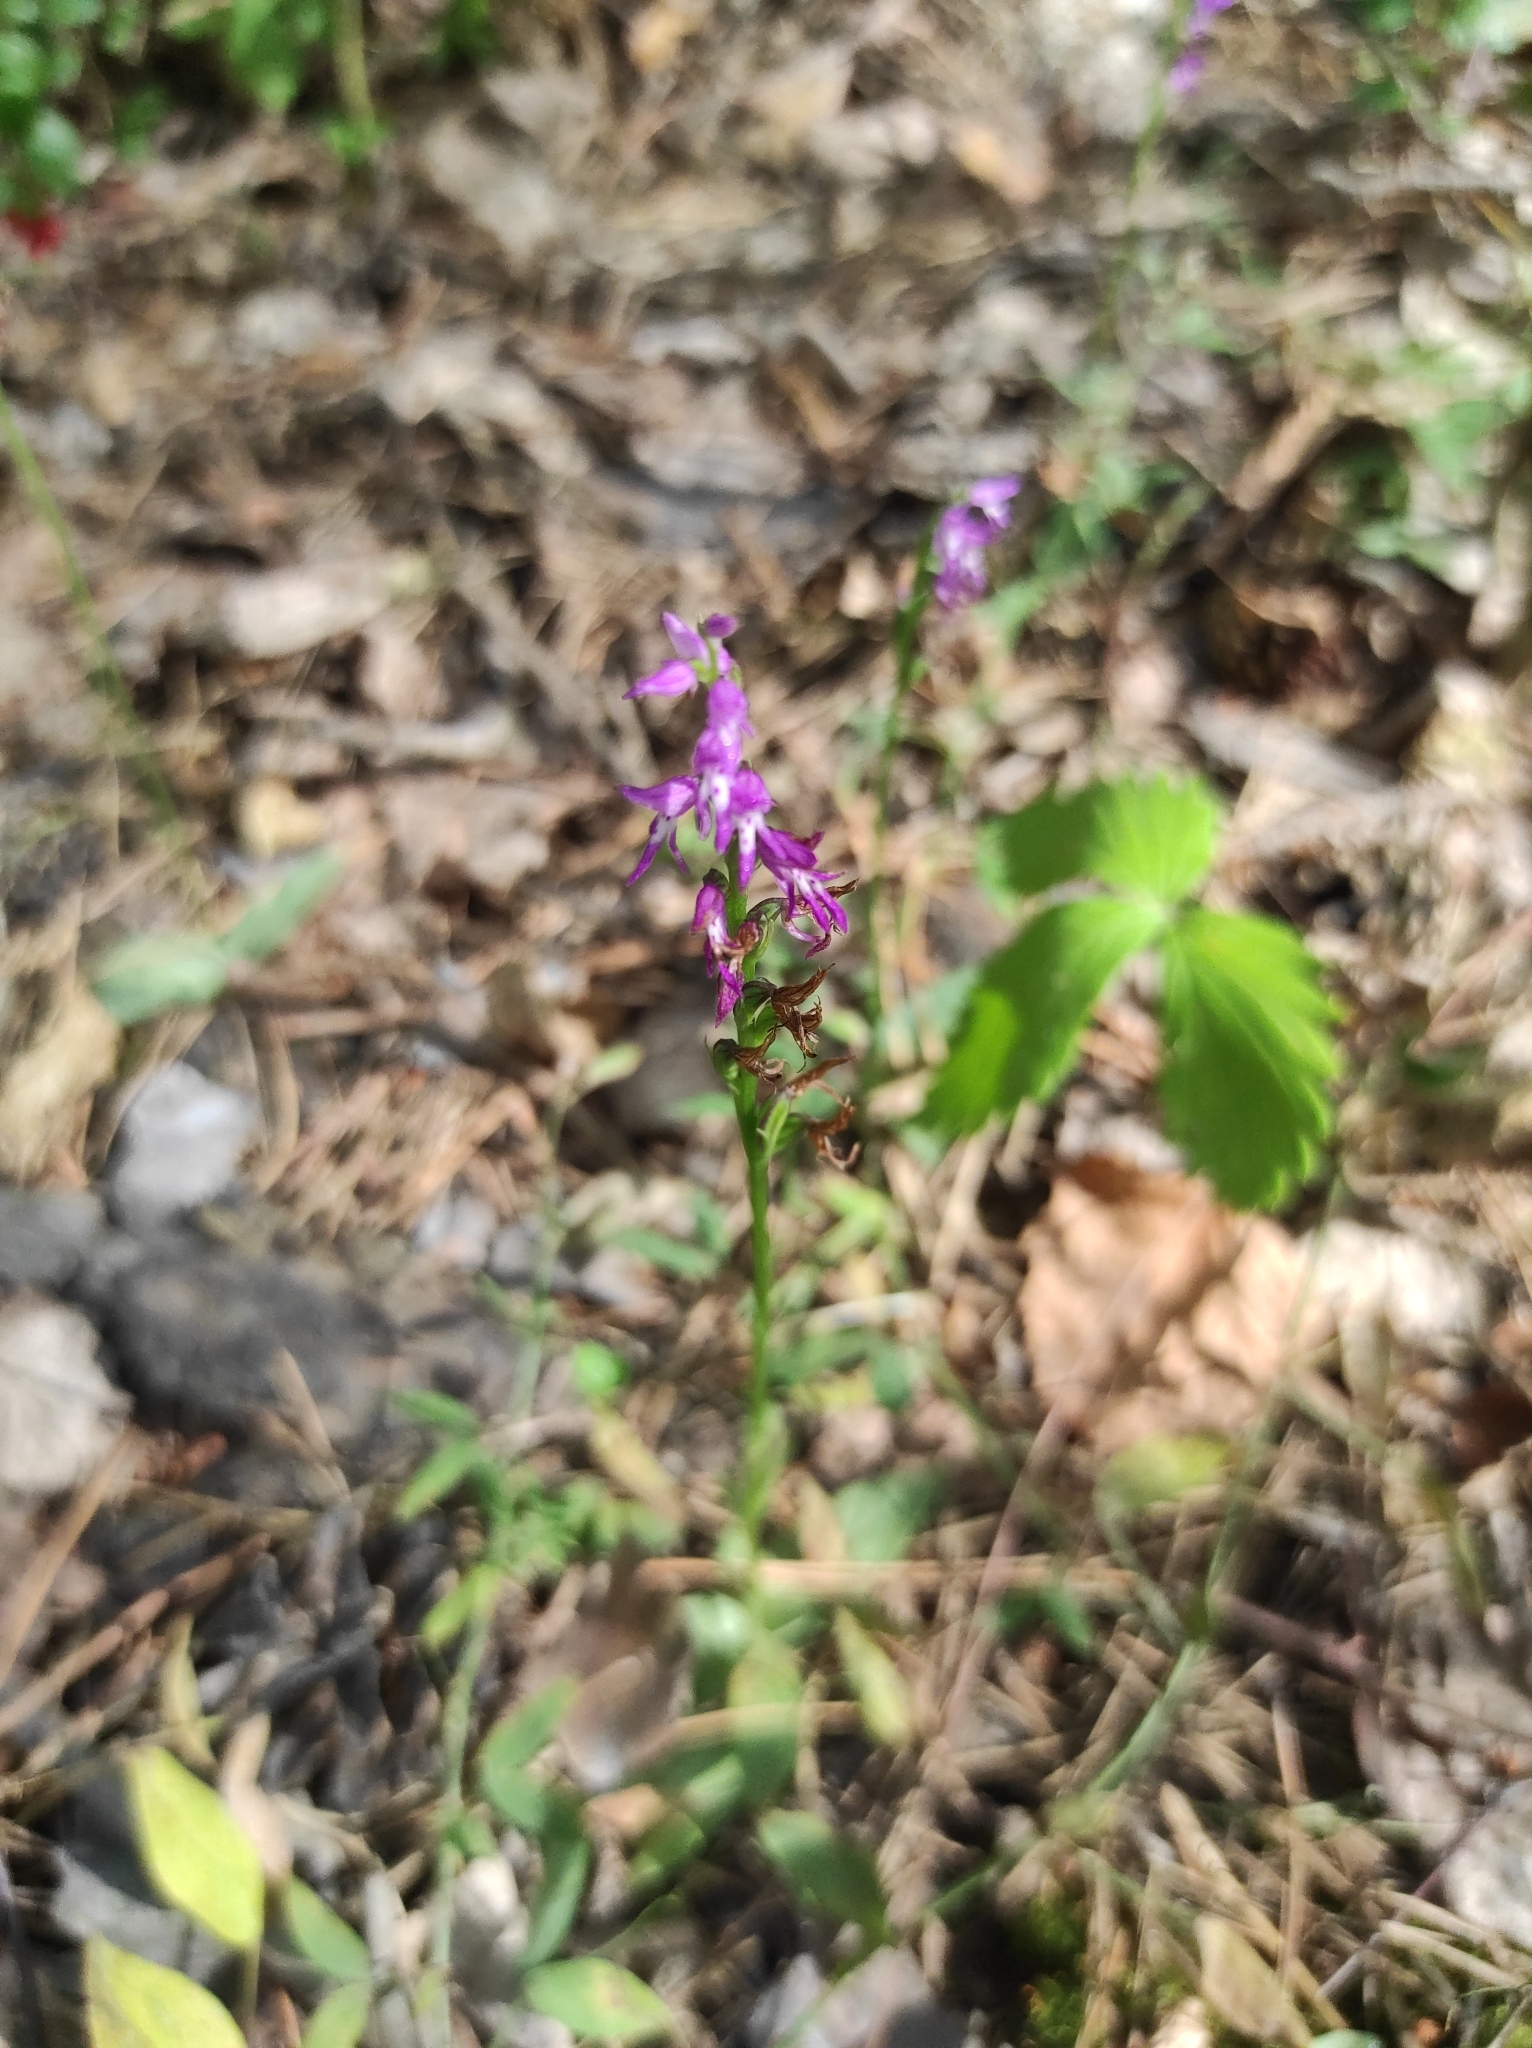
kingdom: Plantae
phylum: Tracheophyta
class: Liliopsida
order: Asparagales
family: Orchidaceae
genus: Hemipilia
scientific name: Hemipilia cucullata
